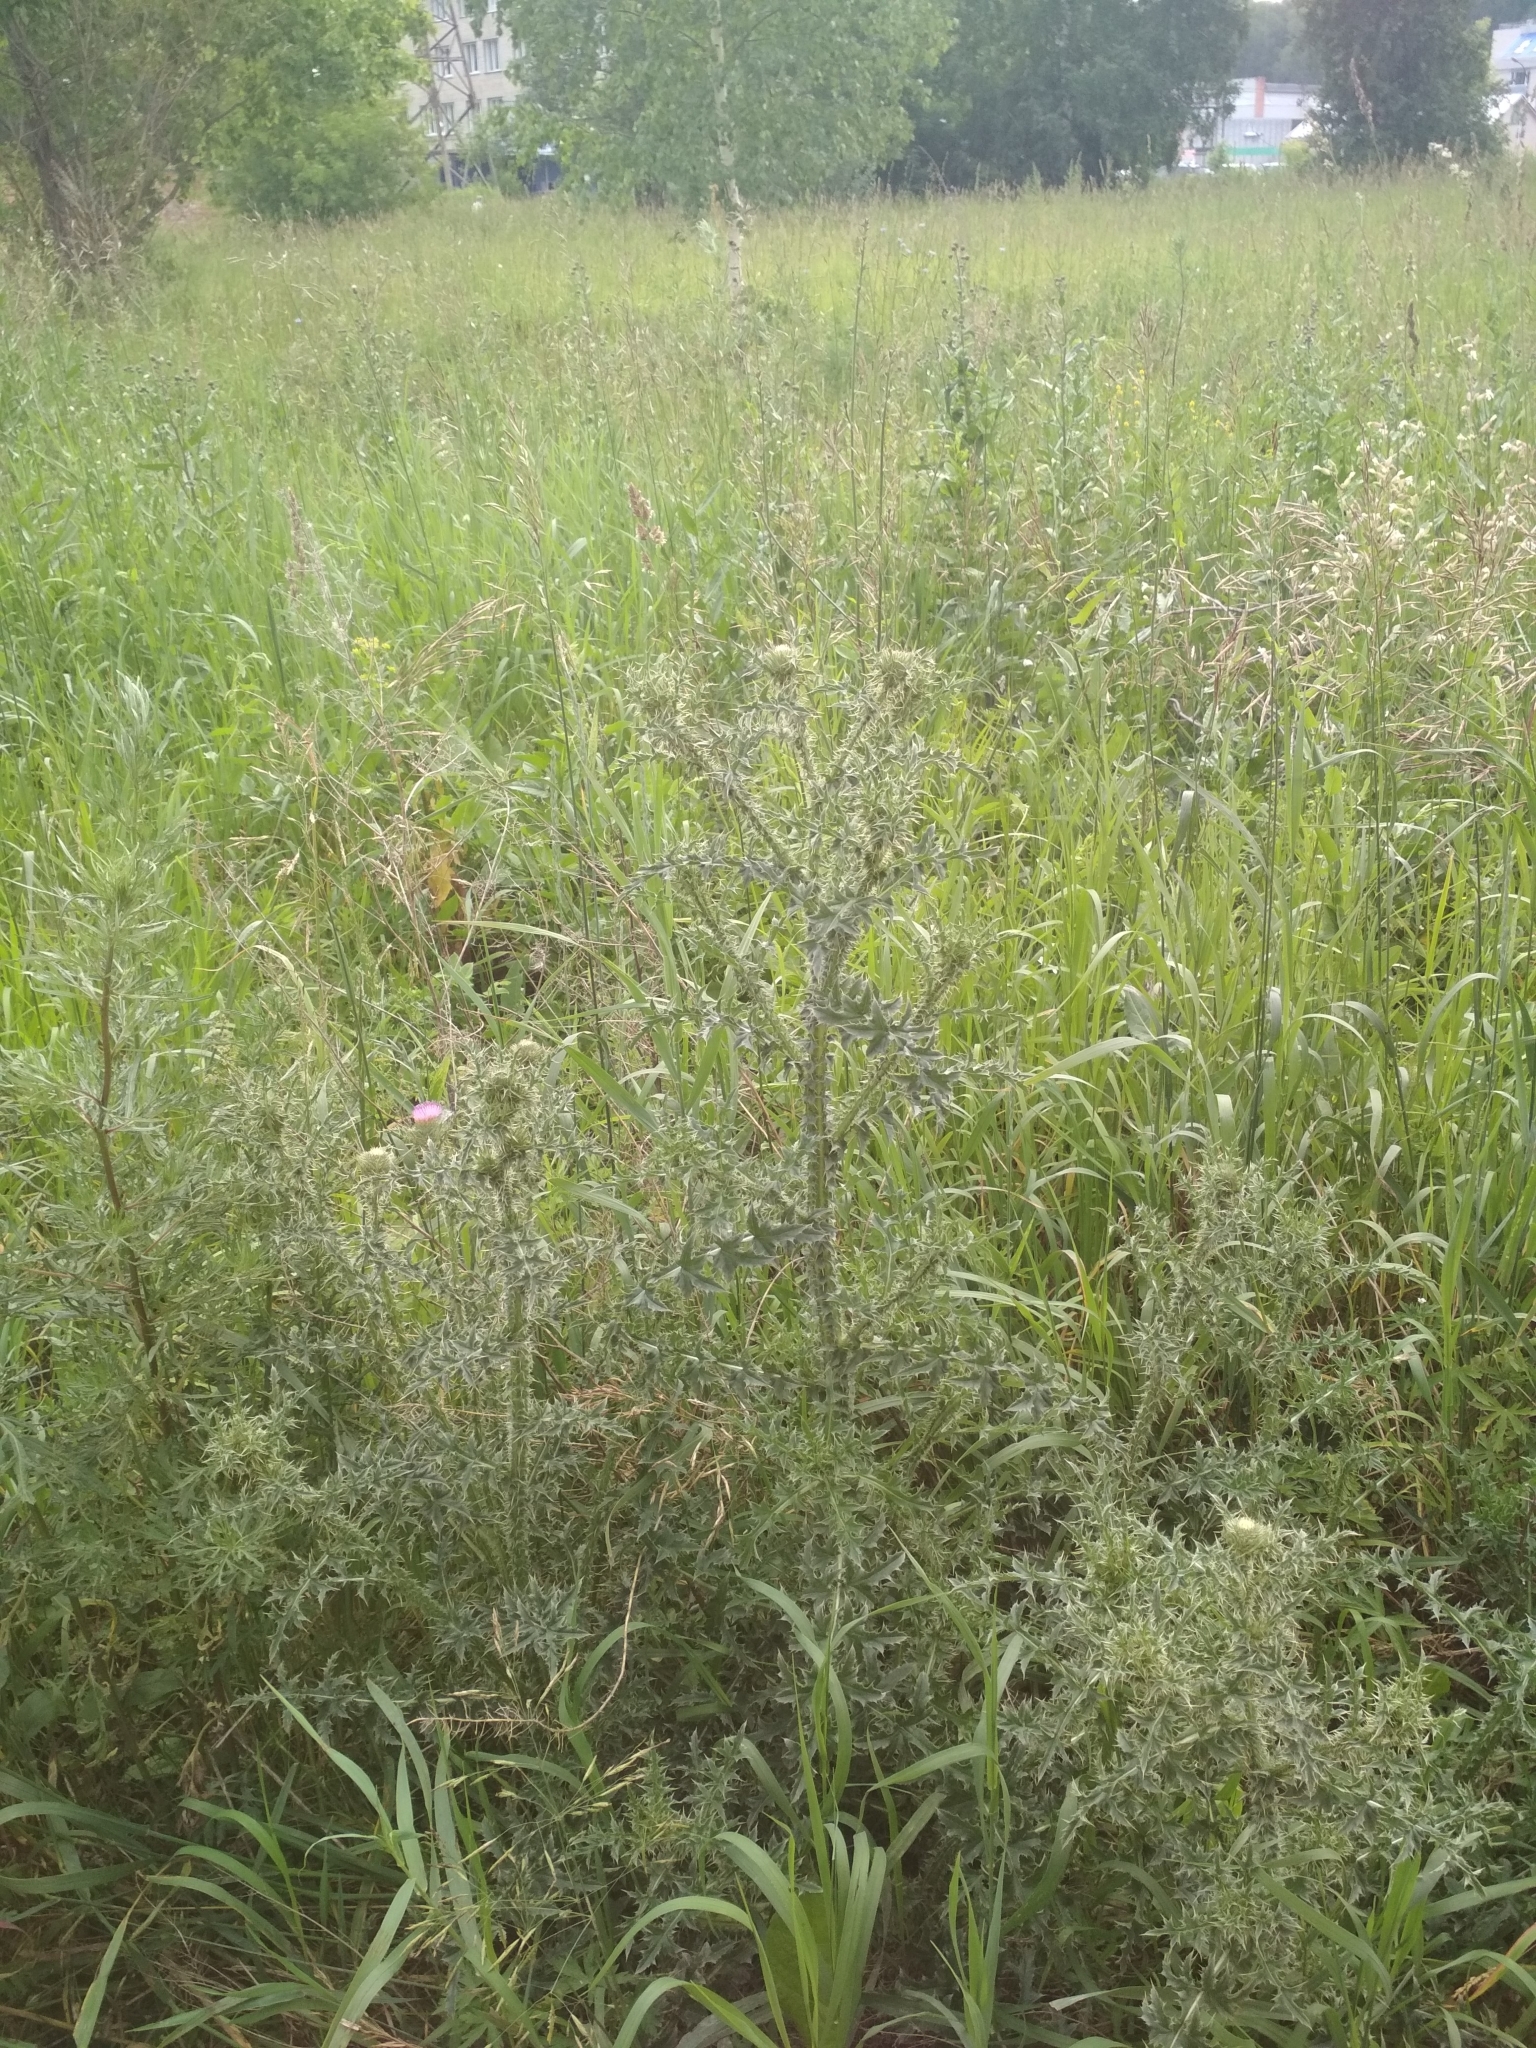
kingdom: Plantae
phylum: Tracheophyta
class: Magnoliopsida
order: Asterales
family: Asteraceae
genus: Carduus
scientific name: Carduus acanthoides
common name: Plumeless thistle
